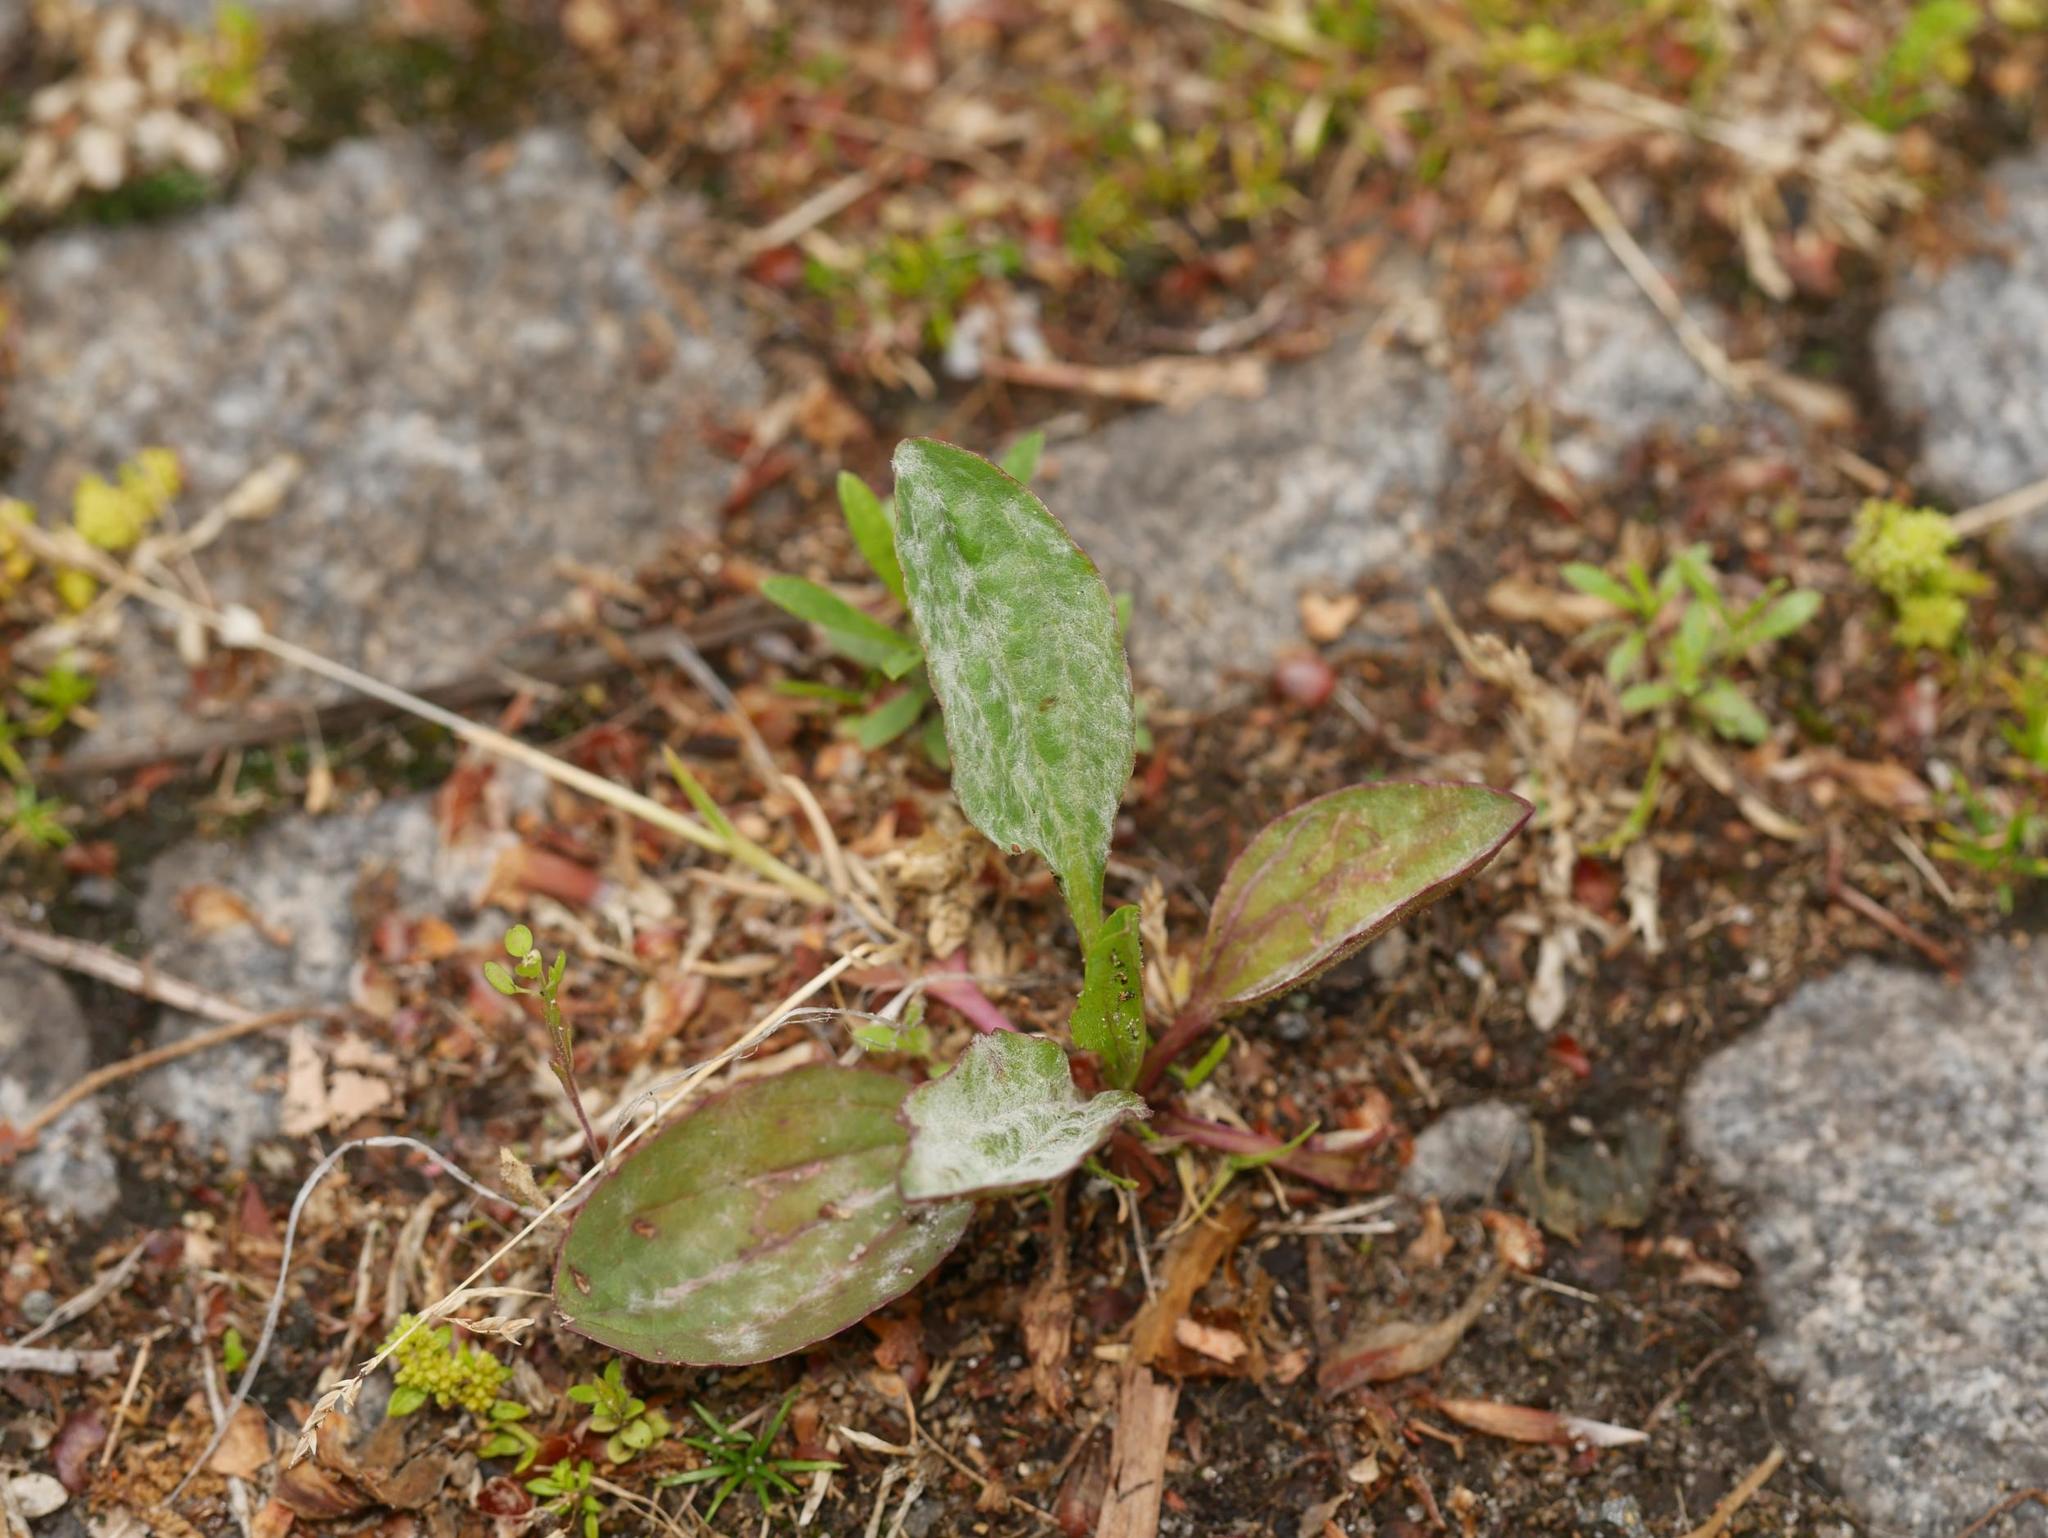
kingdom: Plantae
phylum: Tracheophyta
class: Magnoliopsida
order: Lamiales
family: Plantaginaceae
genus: Plantago
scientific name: Plantago major
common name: Common plantain
